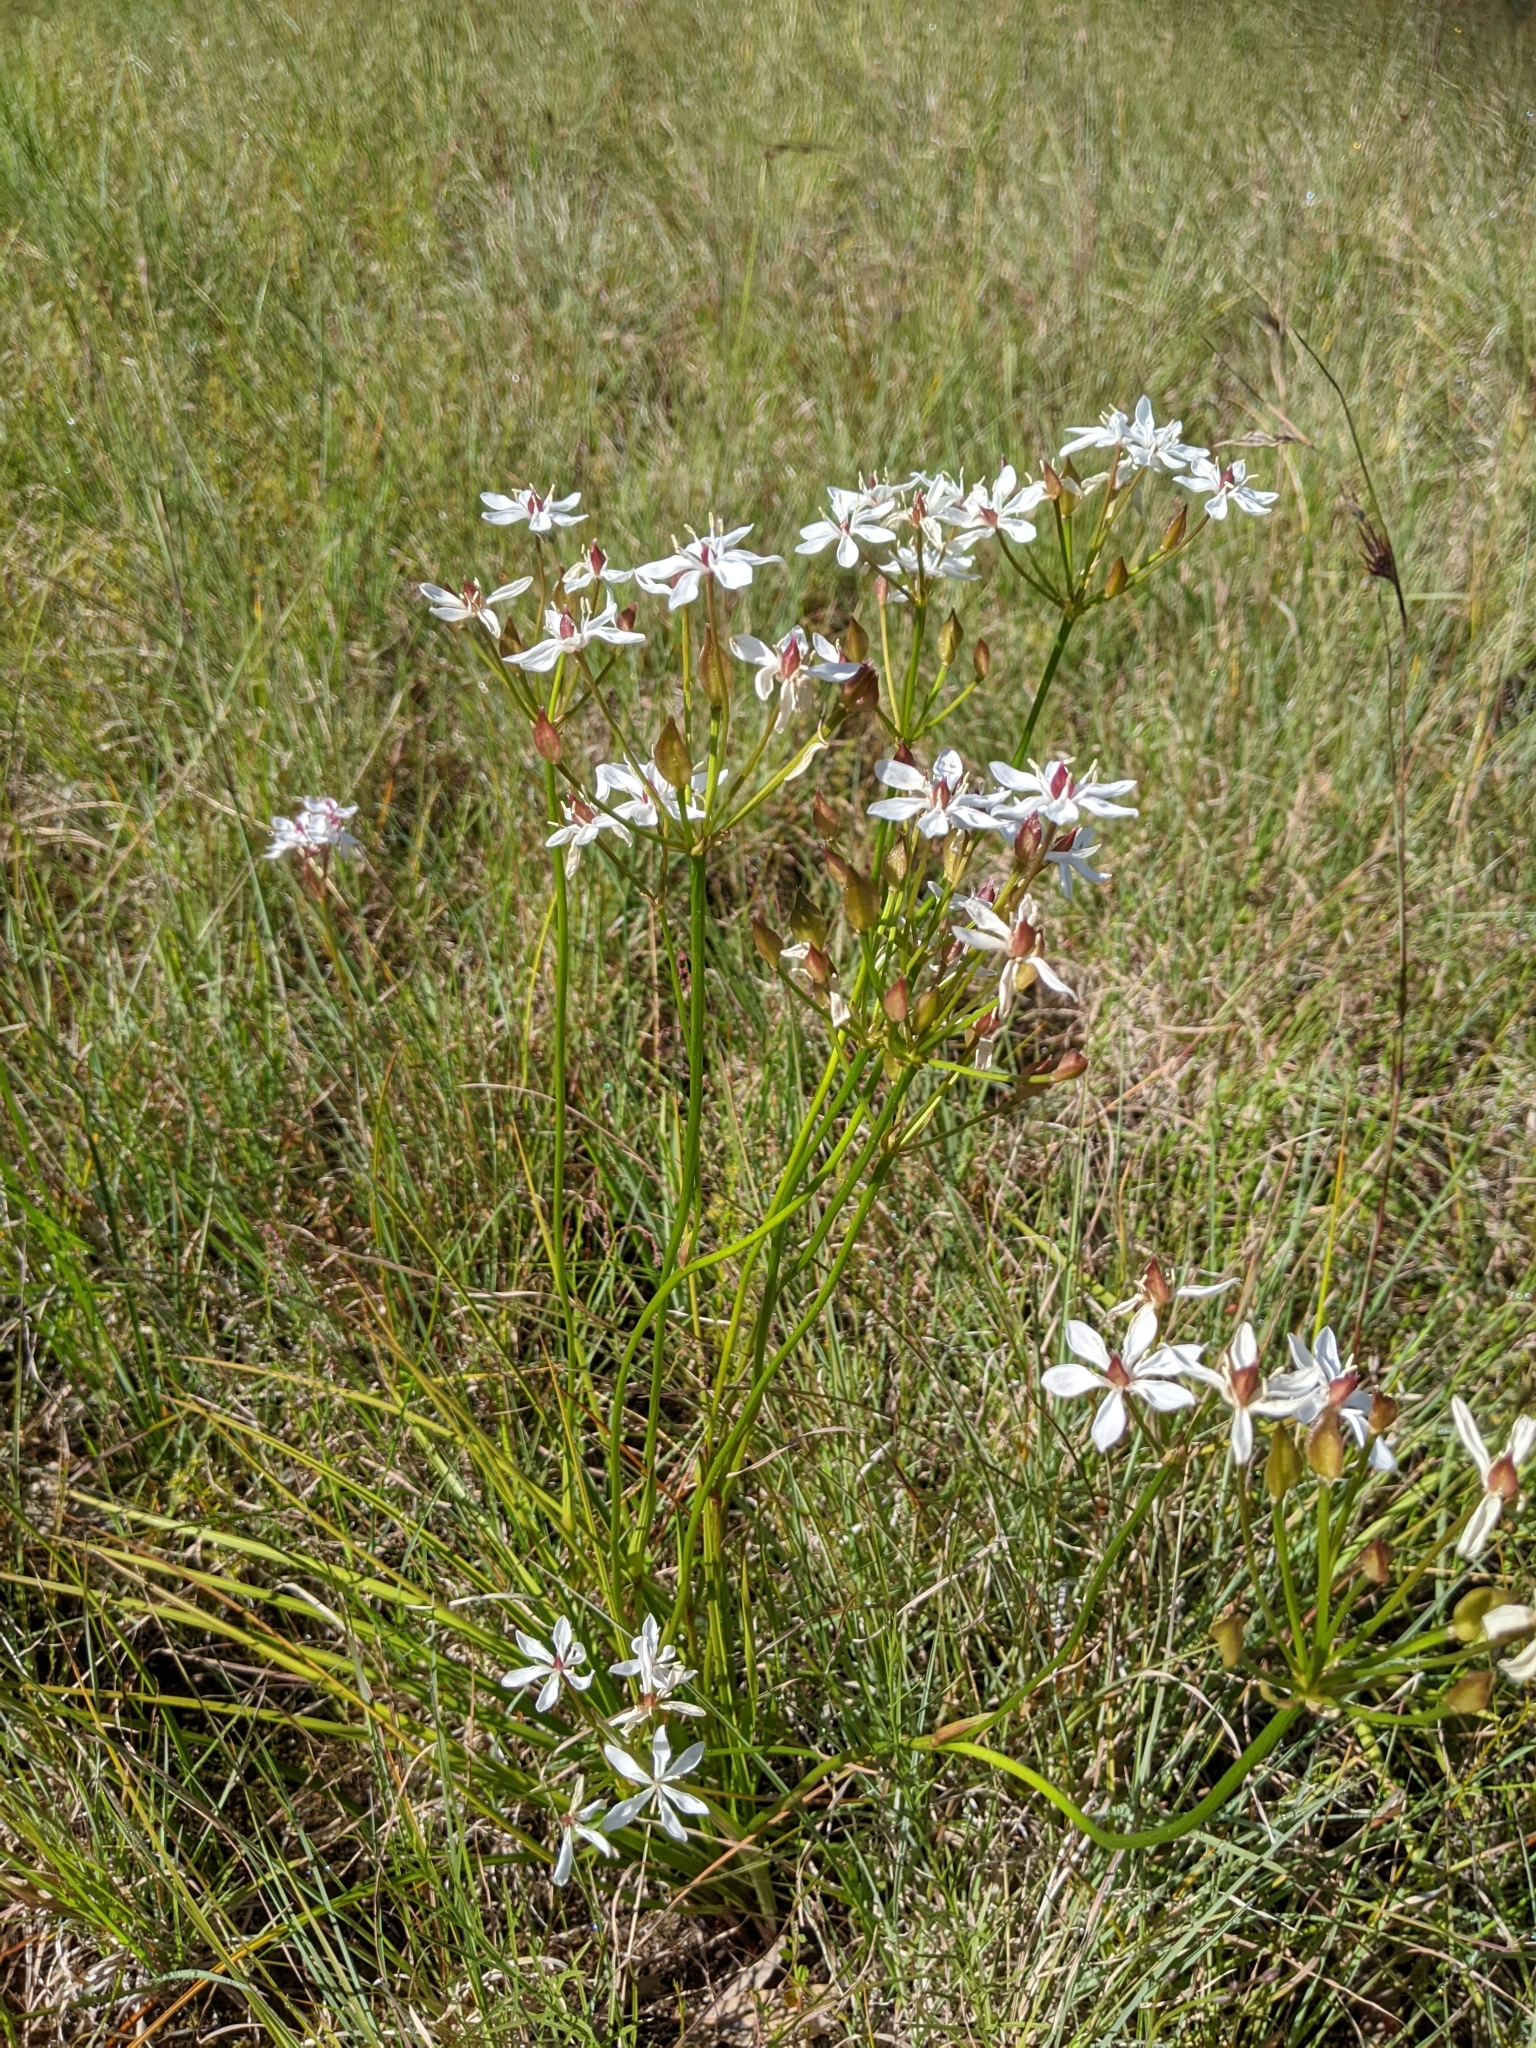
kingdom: Plantae
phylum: Tracheophyta
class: Liliopsida
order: Liliales
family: Colchicaceae
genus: Burchardia
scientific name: Burchardia umbellata
